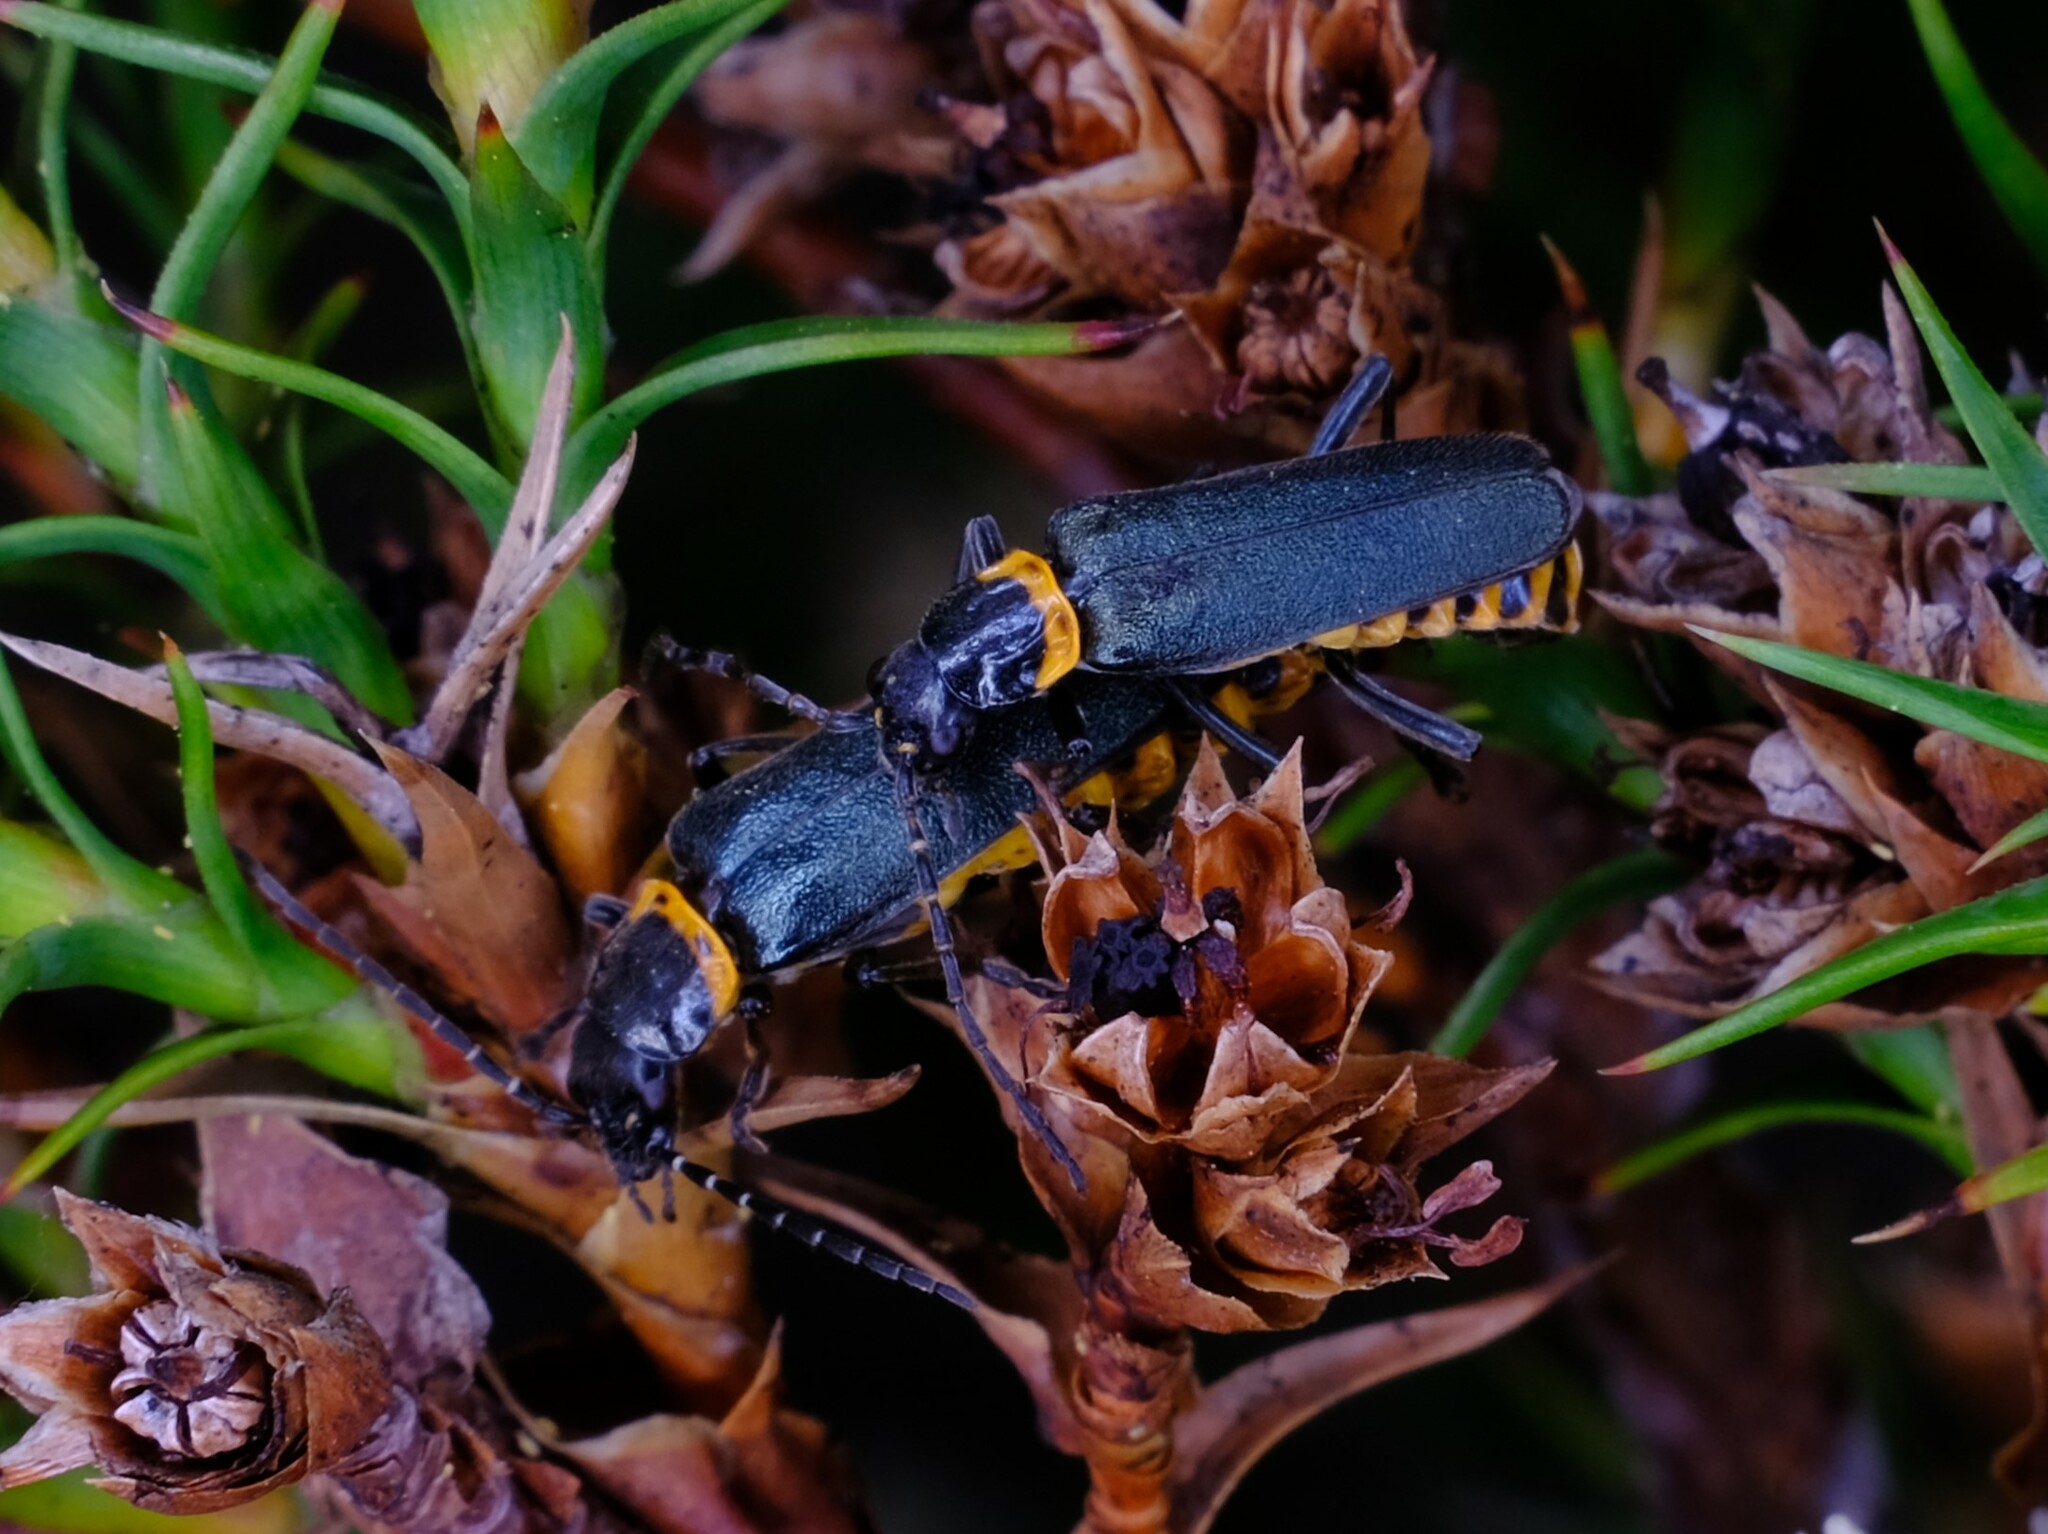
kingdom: Animalia
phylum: Arthropoda
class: Insecta
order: Coleoptera
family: Cantharidae
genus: Chauliognathus
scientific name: Chauliognathus
